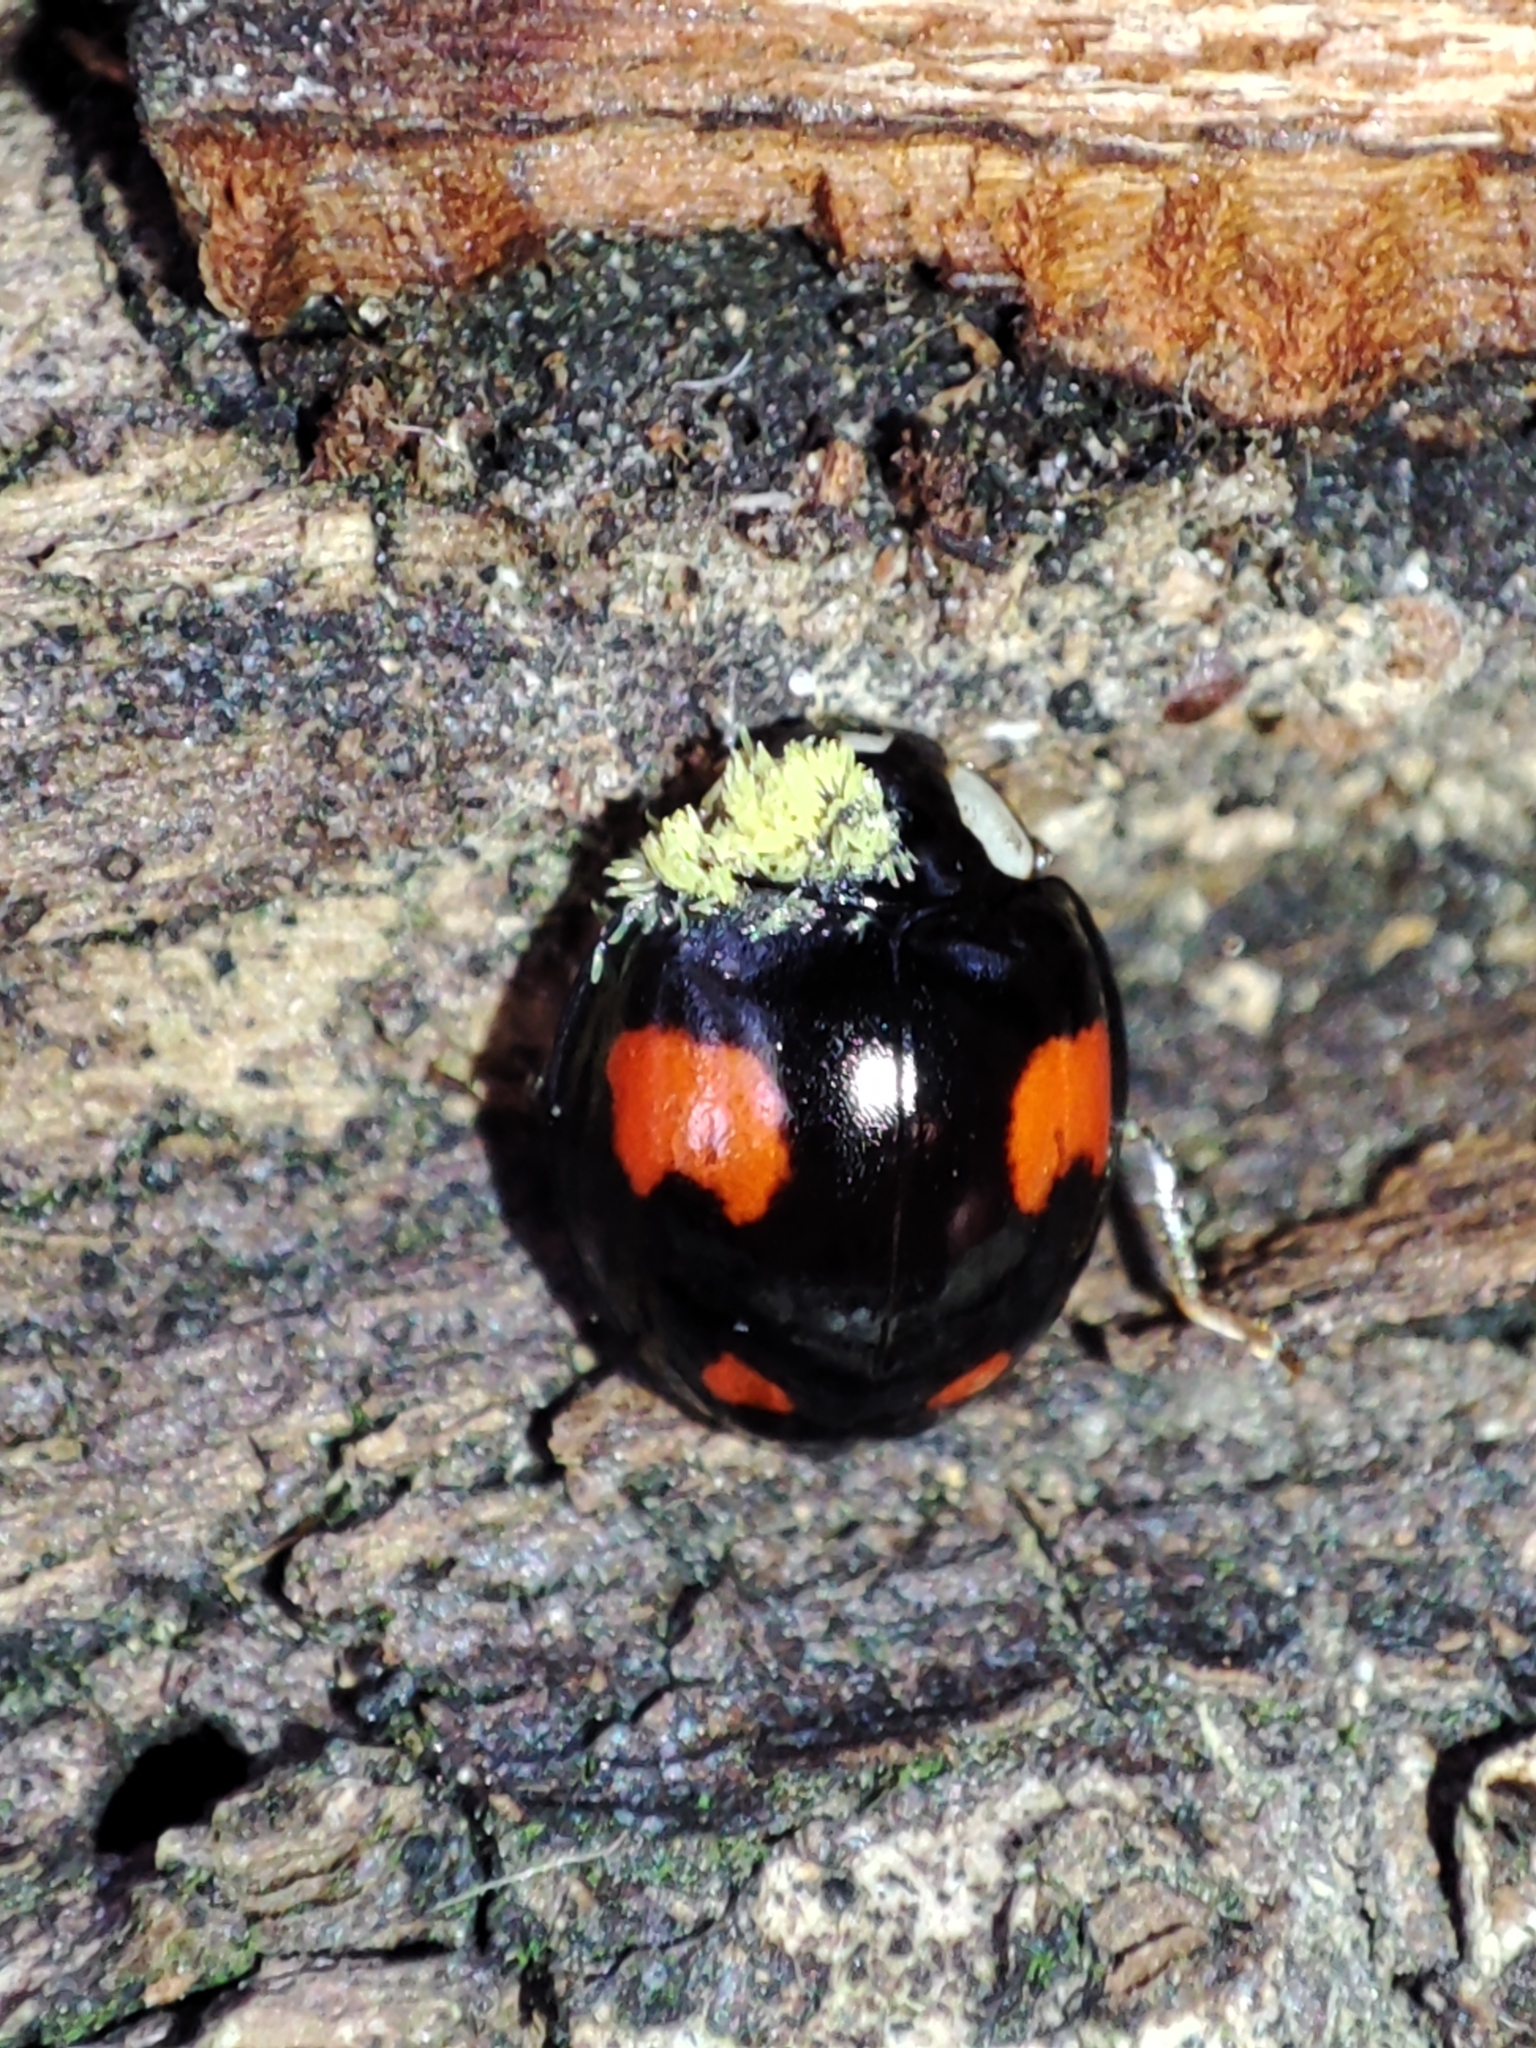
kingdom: Animalia
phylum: Arthropoda
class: Insecta
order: Coleoptera
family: Coccinellidae
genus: Harmonia
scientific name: Harmonia axyridis
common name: Harlequin ladybird
